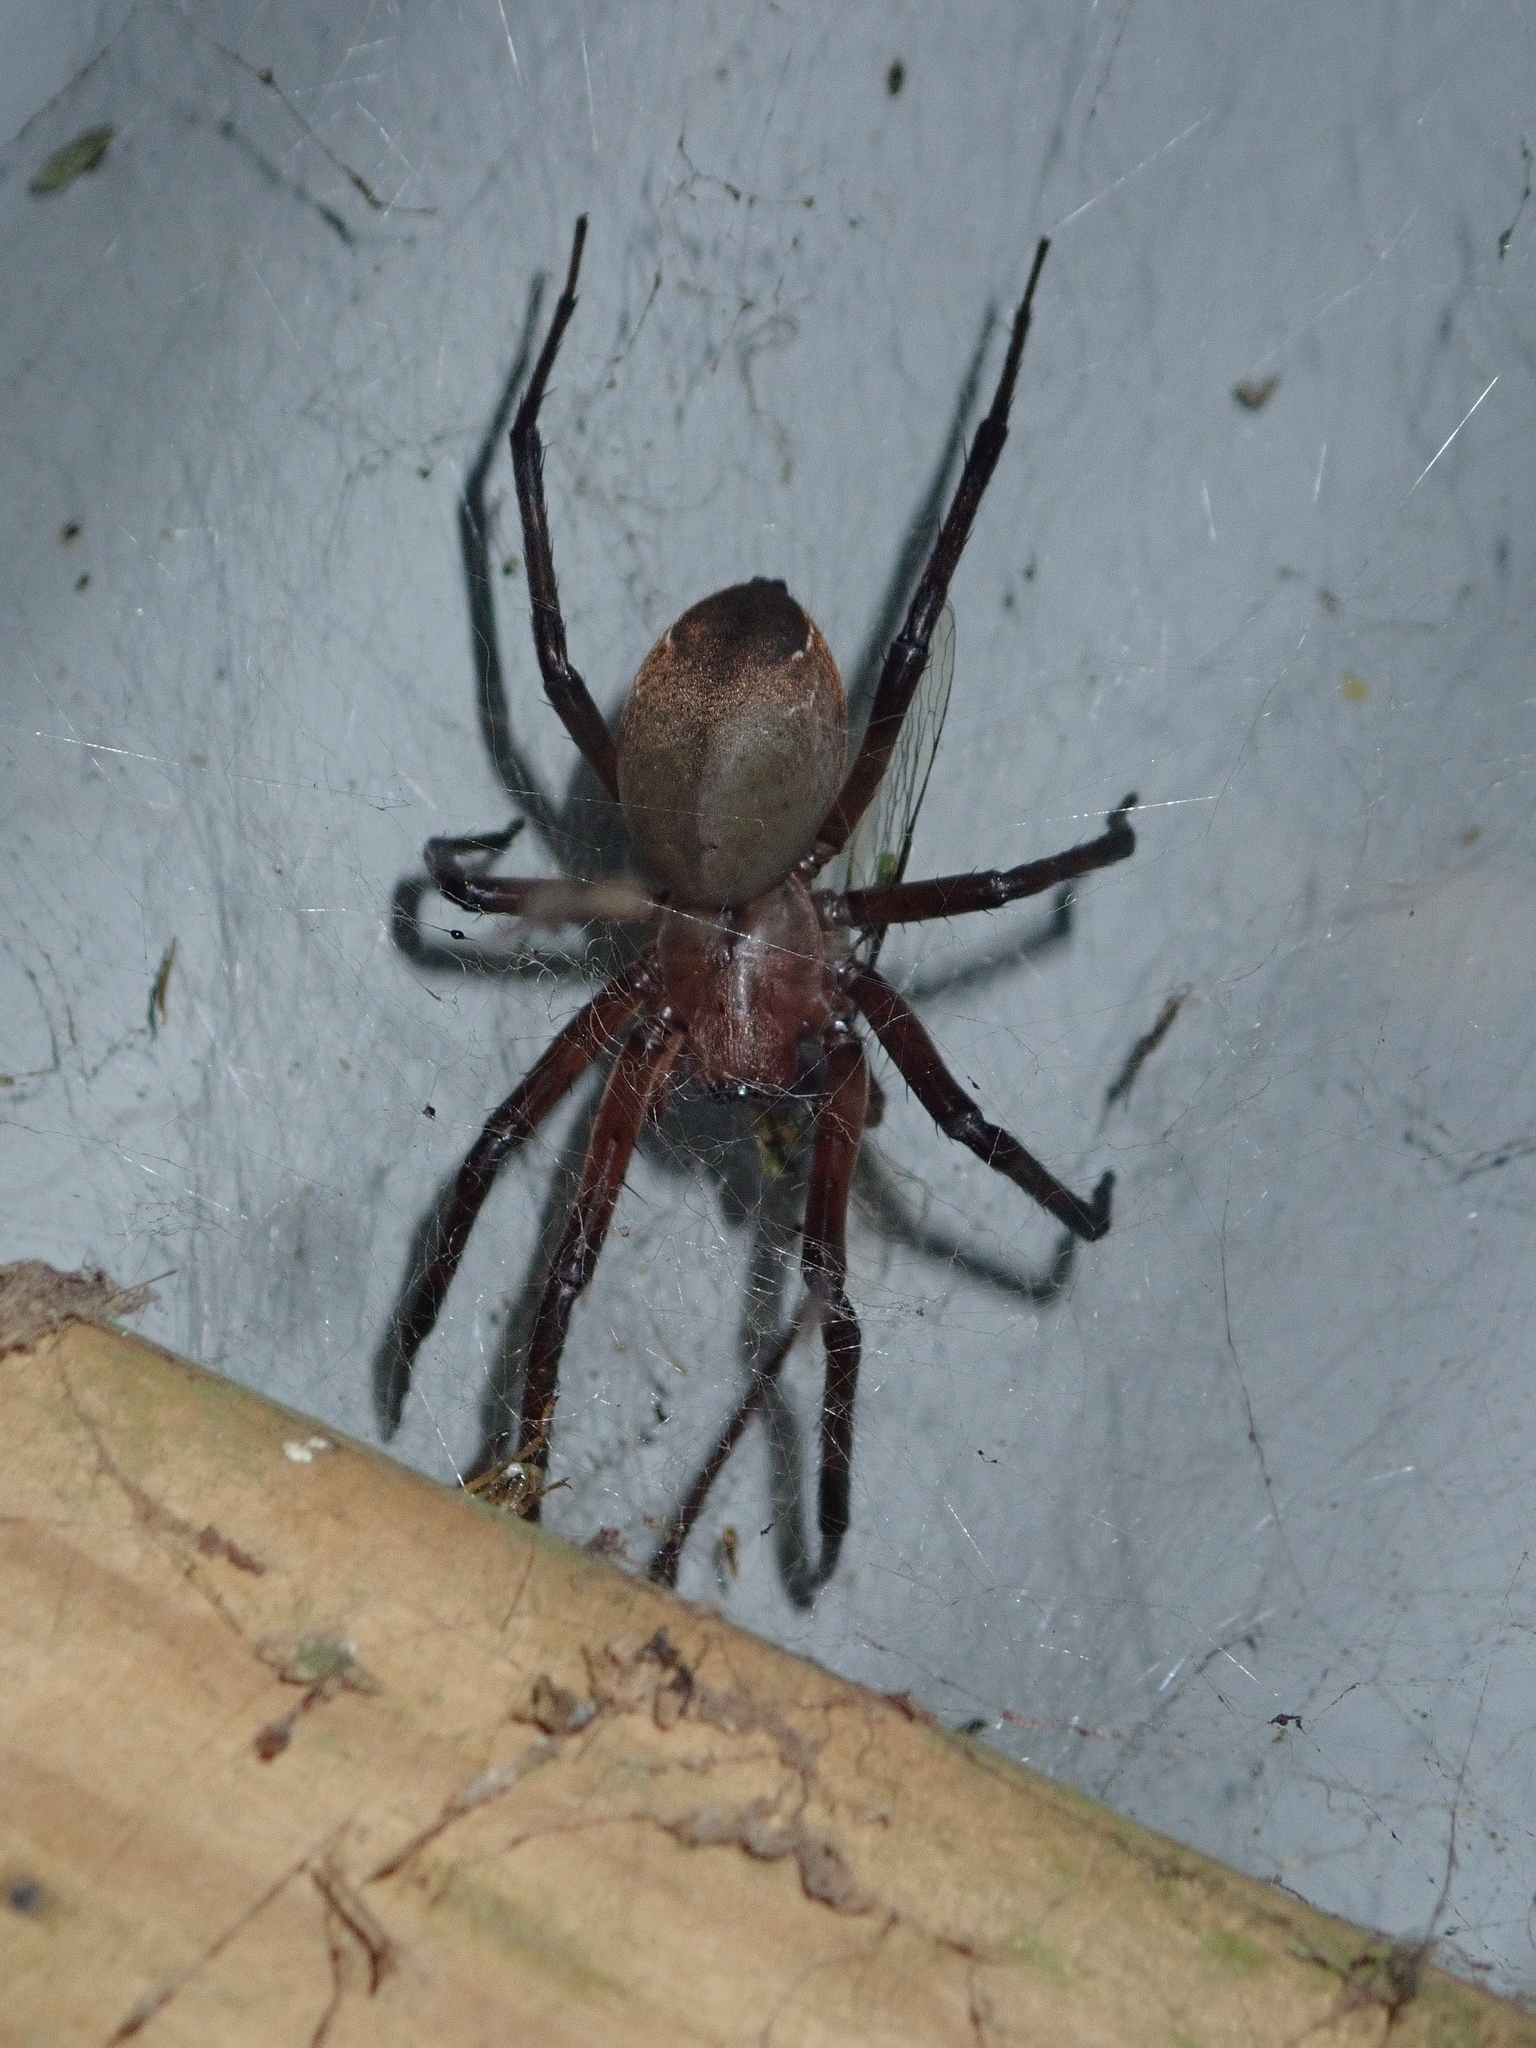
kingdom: Animalia
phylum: Arthropoda
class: Arachnida
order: Araneae
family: Desidae
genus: Cambridgea
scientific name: Cambridgea
